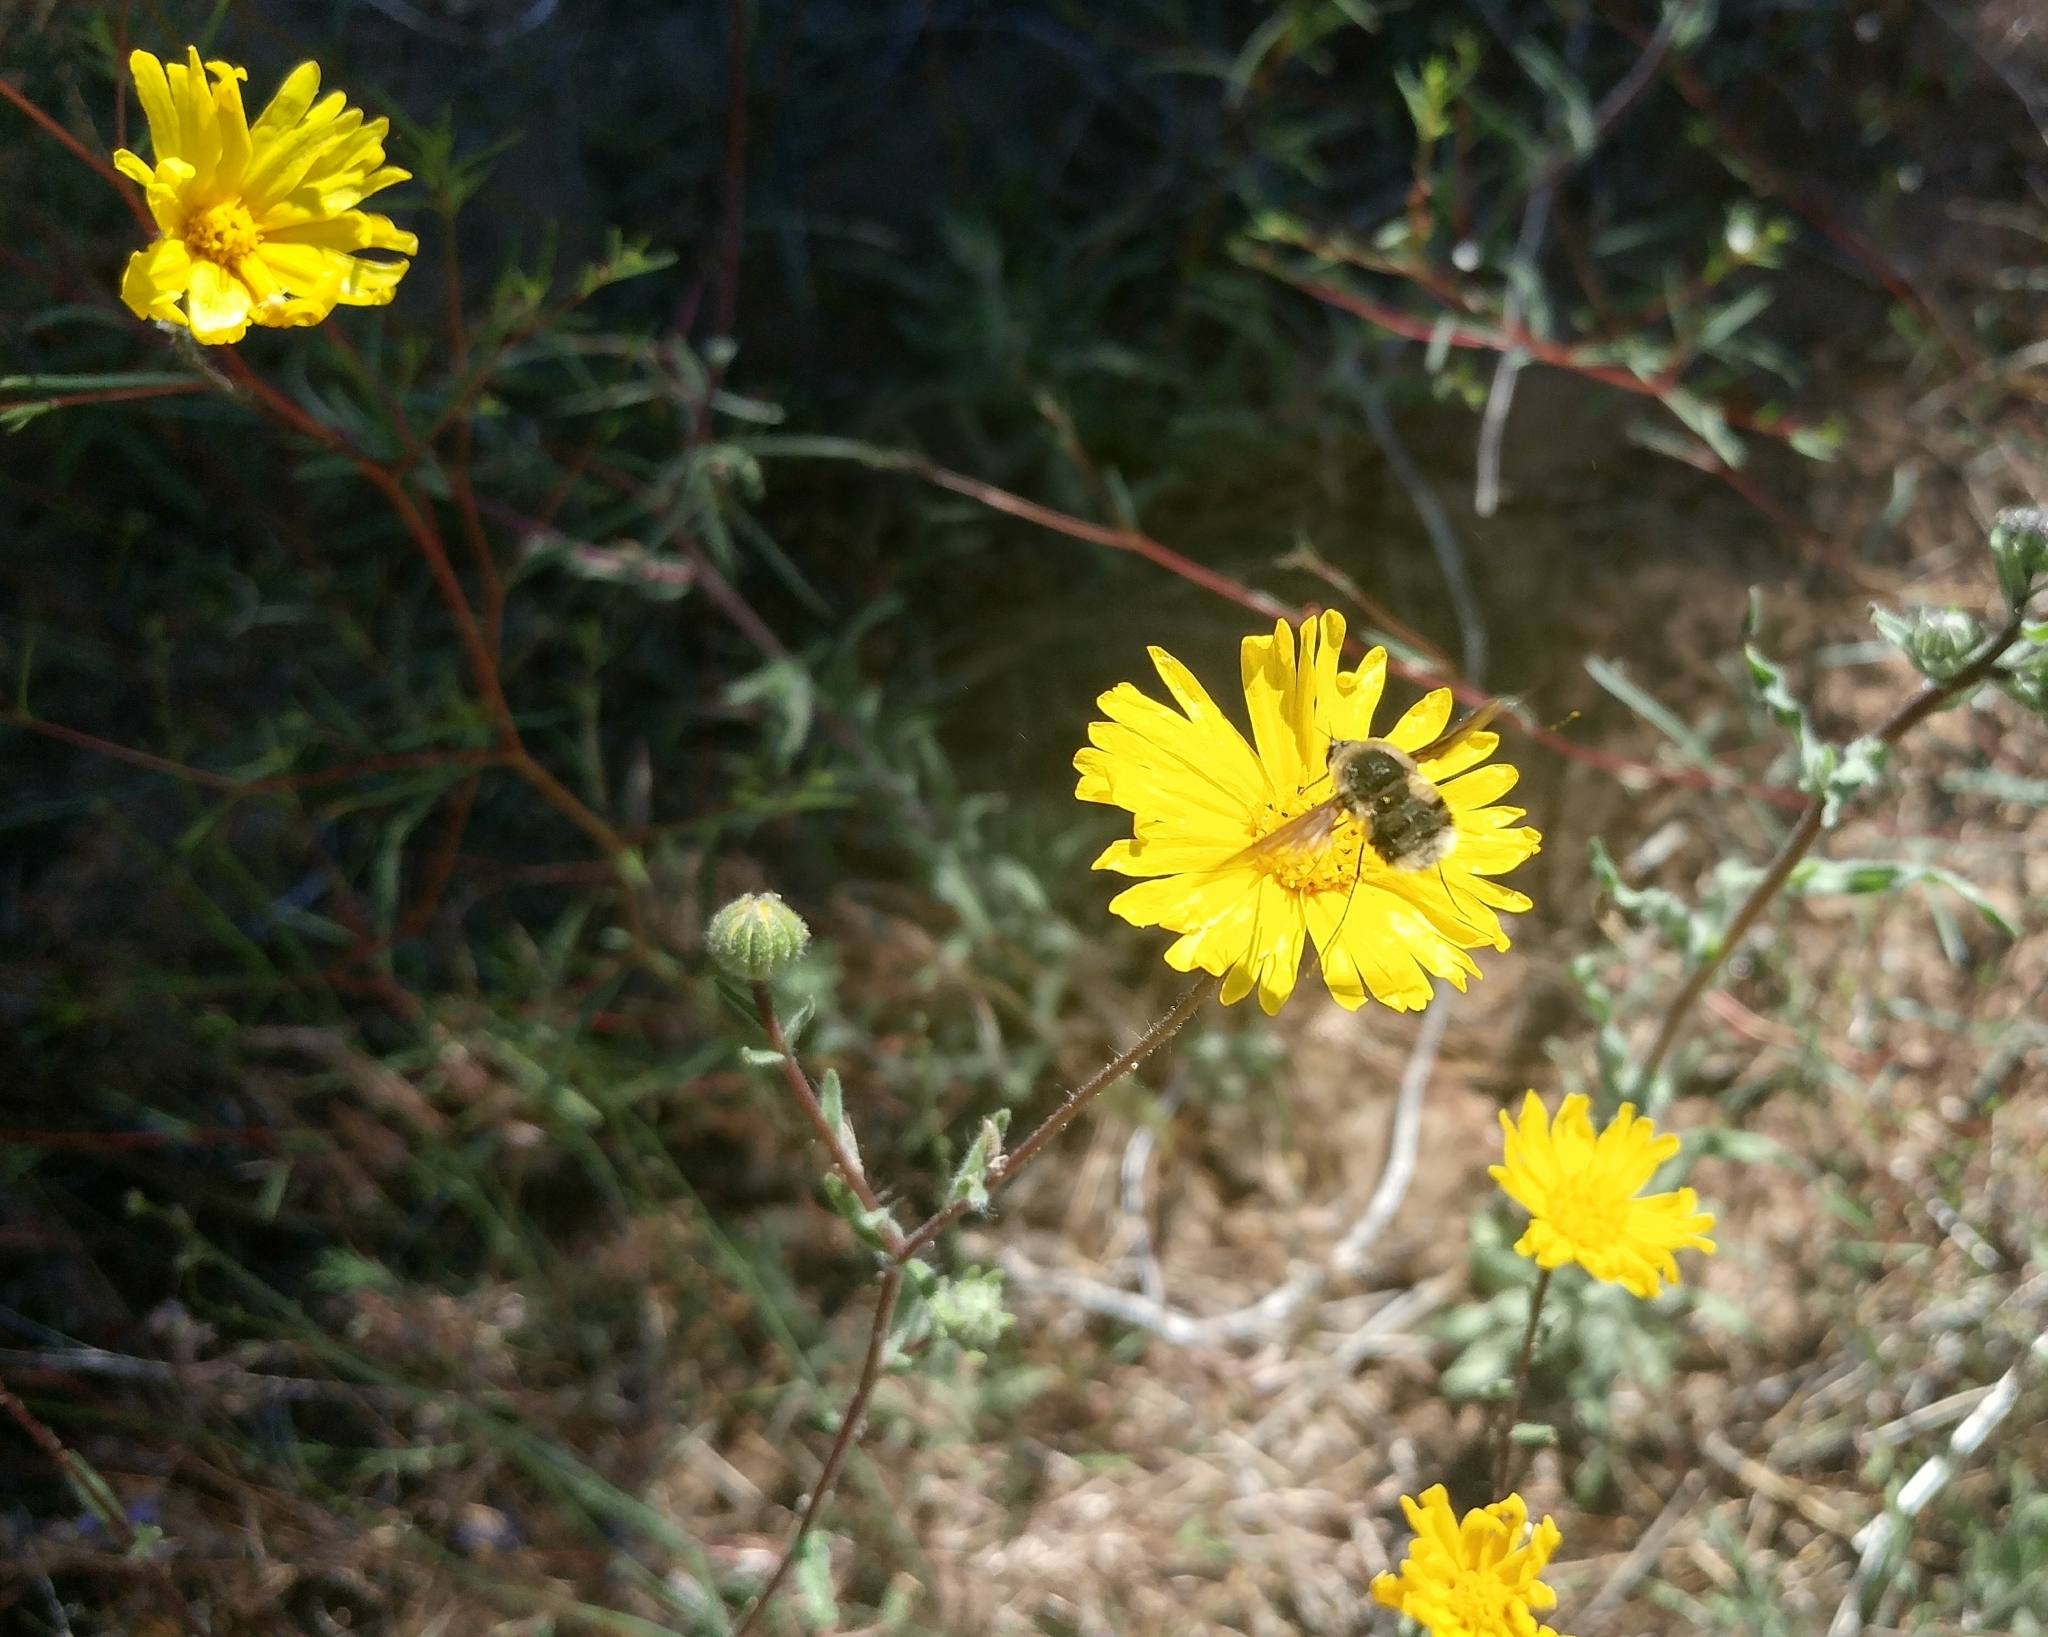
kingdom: Plantae
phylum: Tracheophyta
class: Magnoliopsida
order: Asterales
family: Asteraceae
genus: Madia
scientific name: Madia elegans
